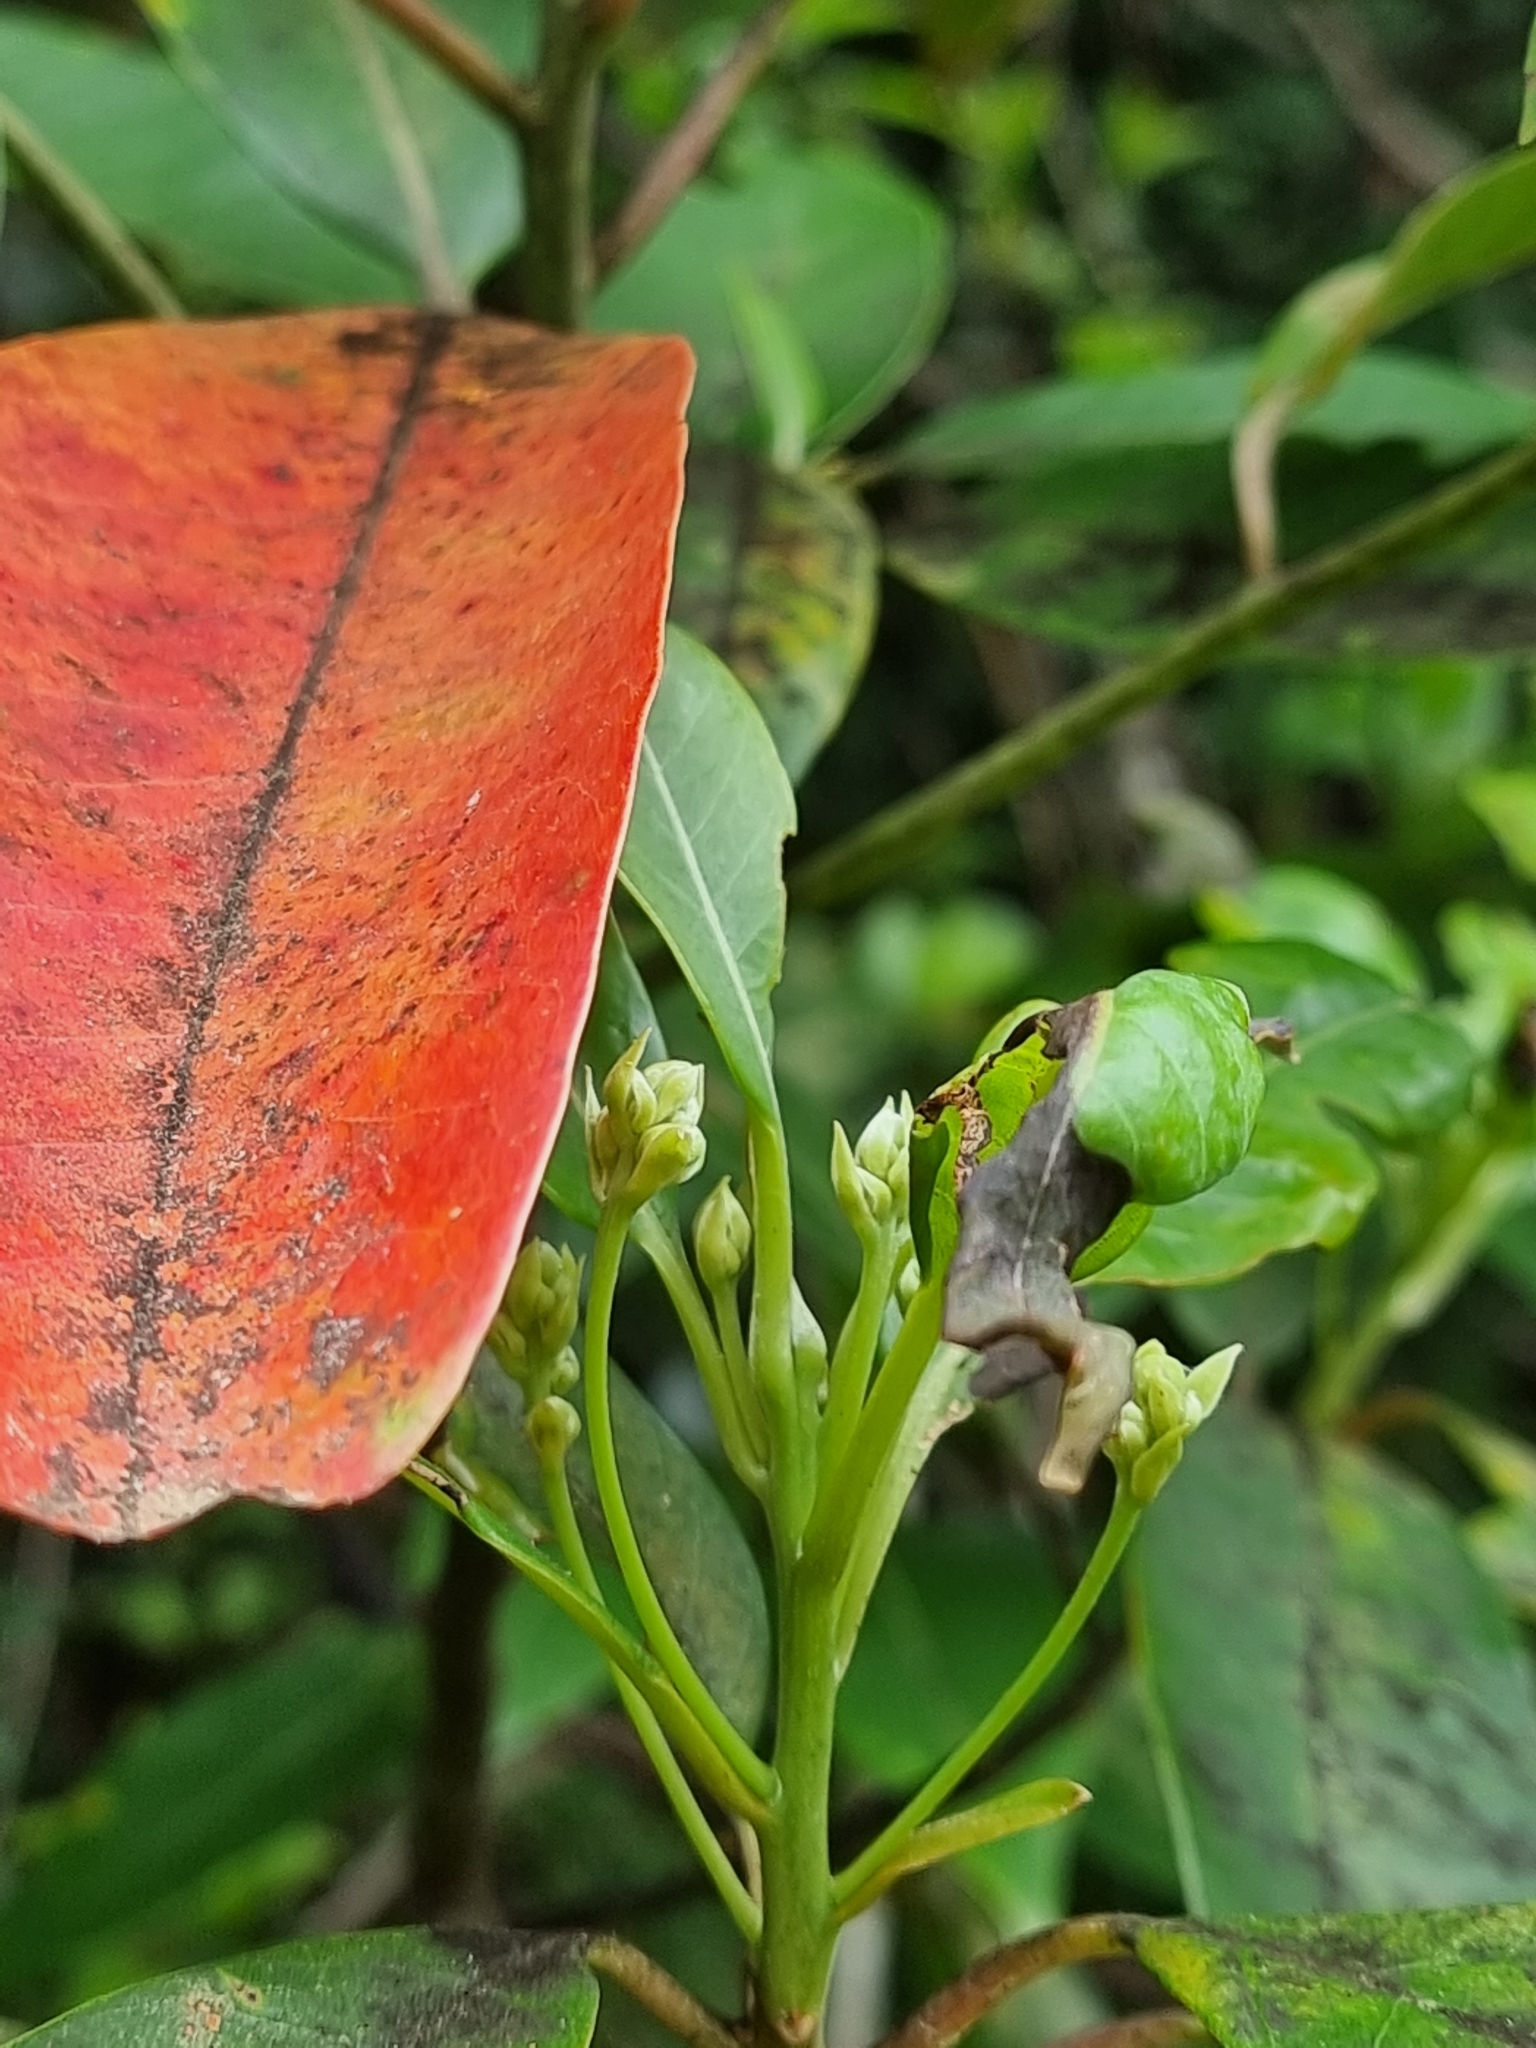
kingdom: Plantae
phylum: Tracheophyta
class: Magnoliopsida
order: Laurales
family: Lauraceae
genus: Persea
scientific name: Persea indica
